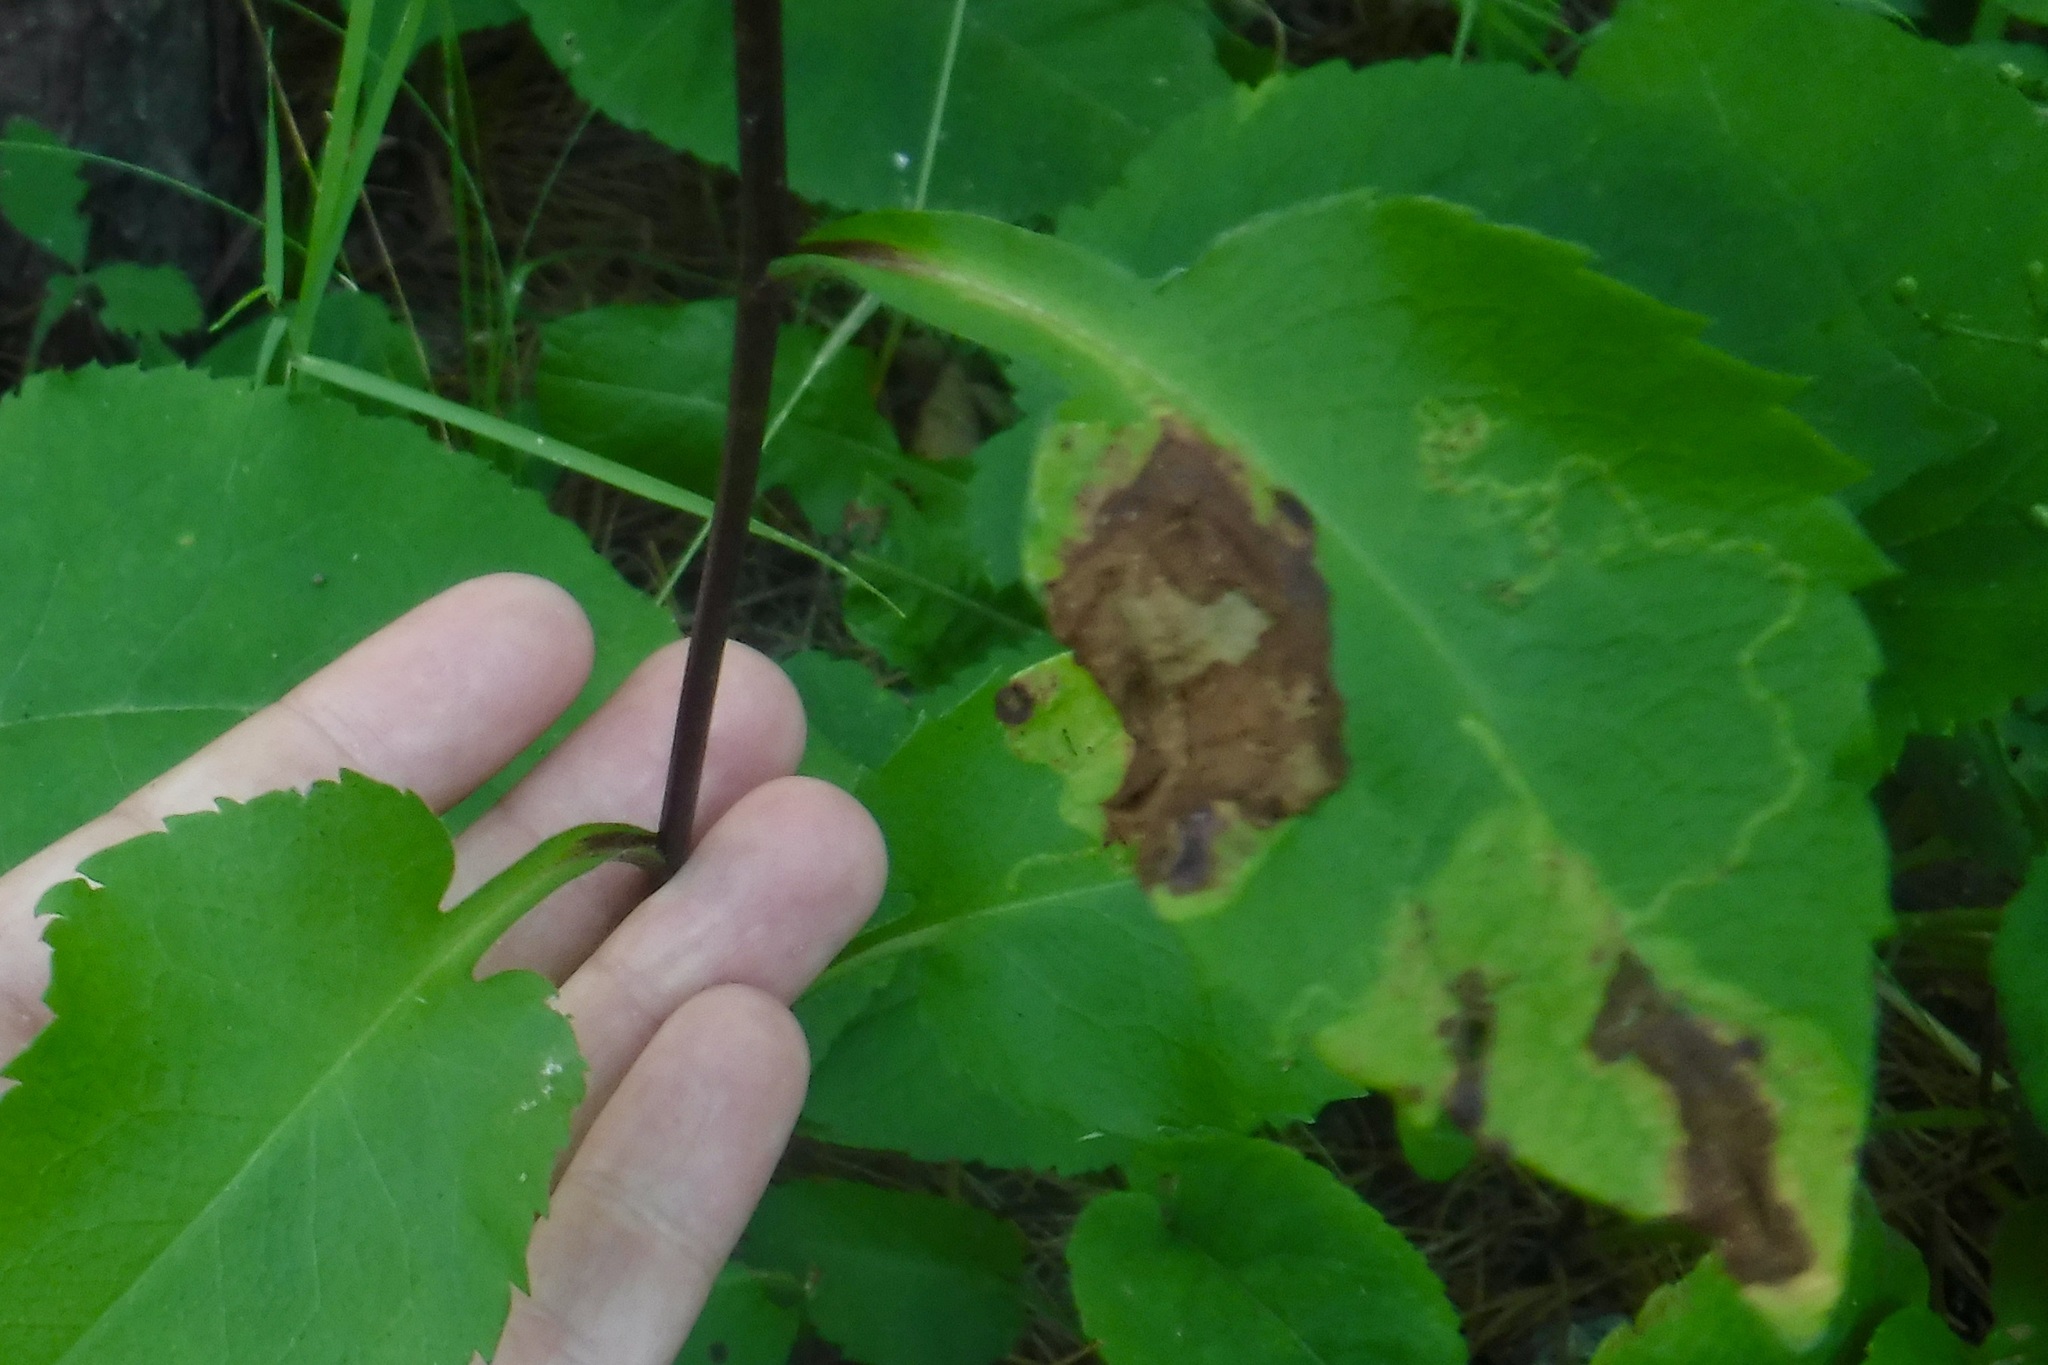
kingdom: Animalia
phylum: Arthropoda
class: Insecta
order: Lepidoptera
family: Gracillariidae
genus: Acrocercops
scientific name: Acrocercops astericola
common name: Aster tentiform blotchminer
